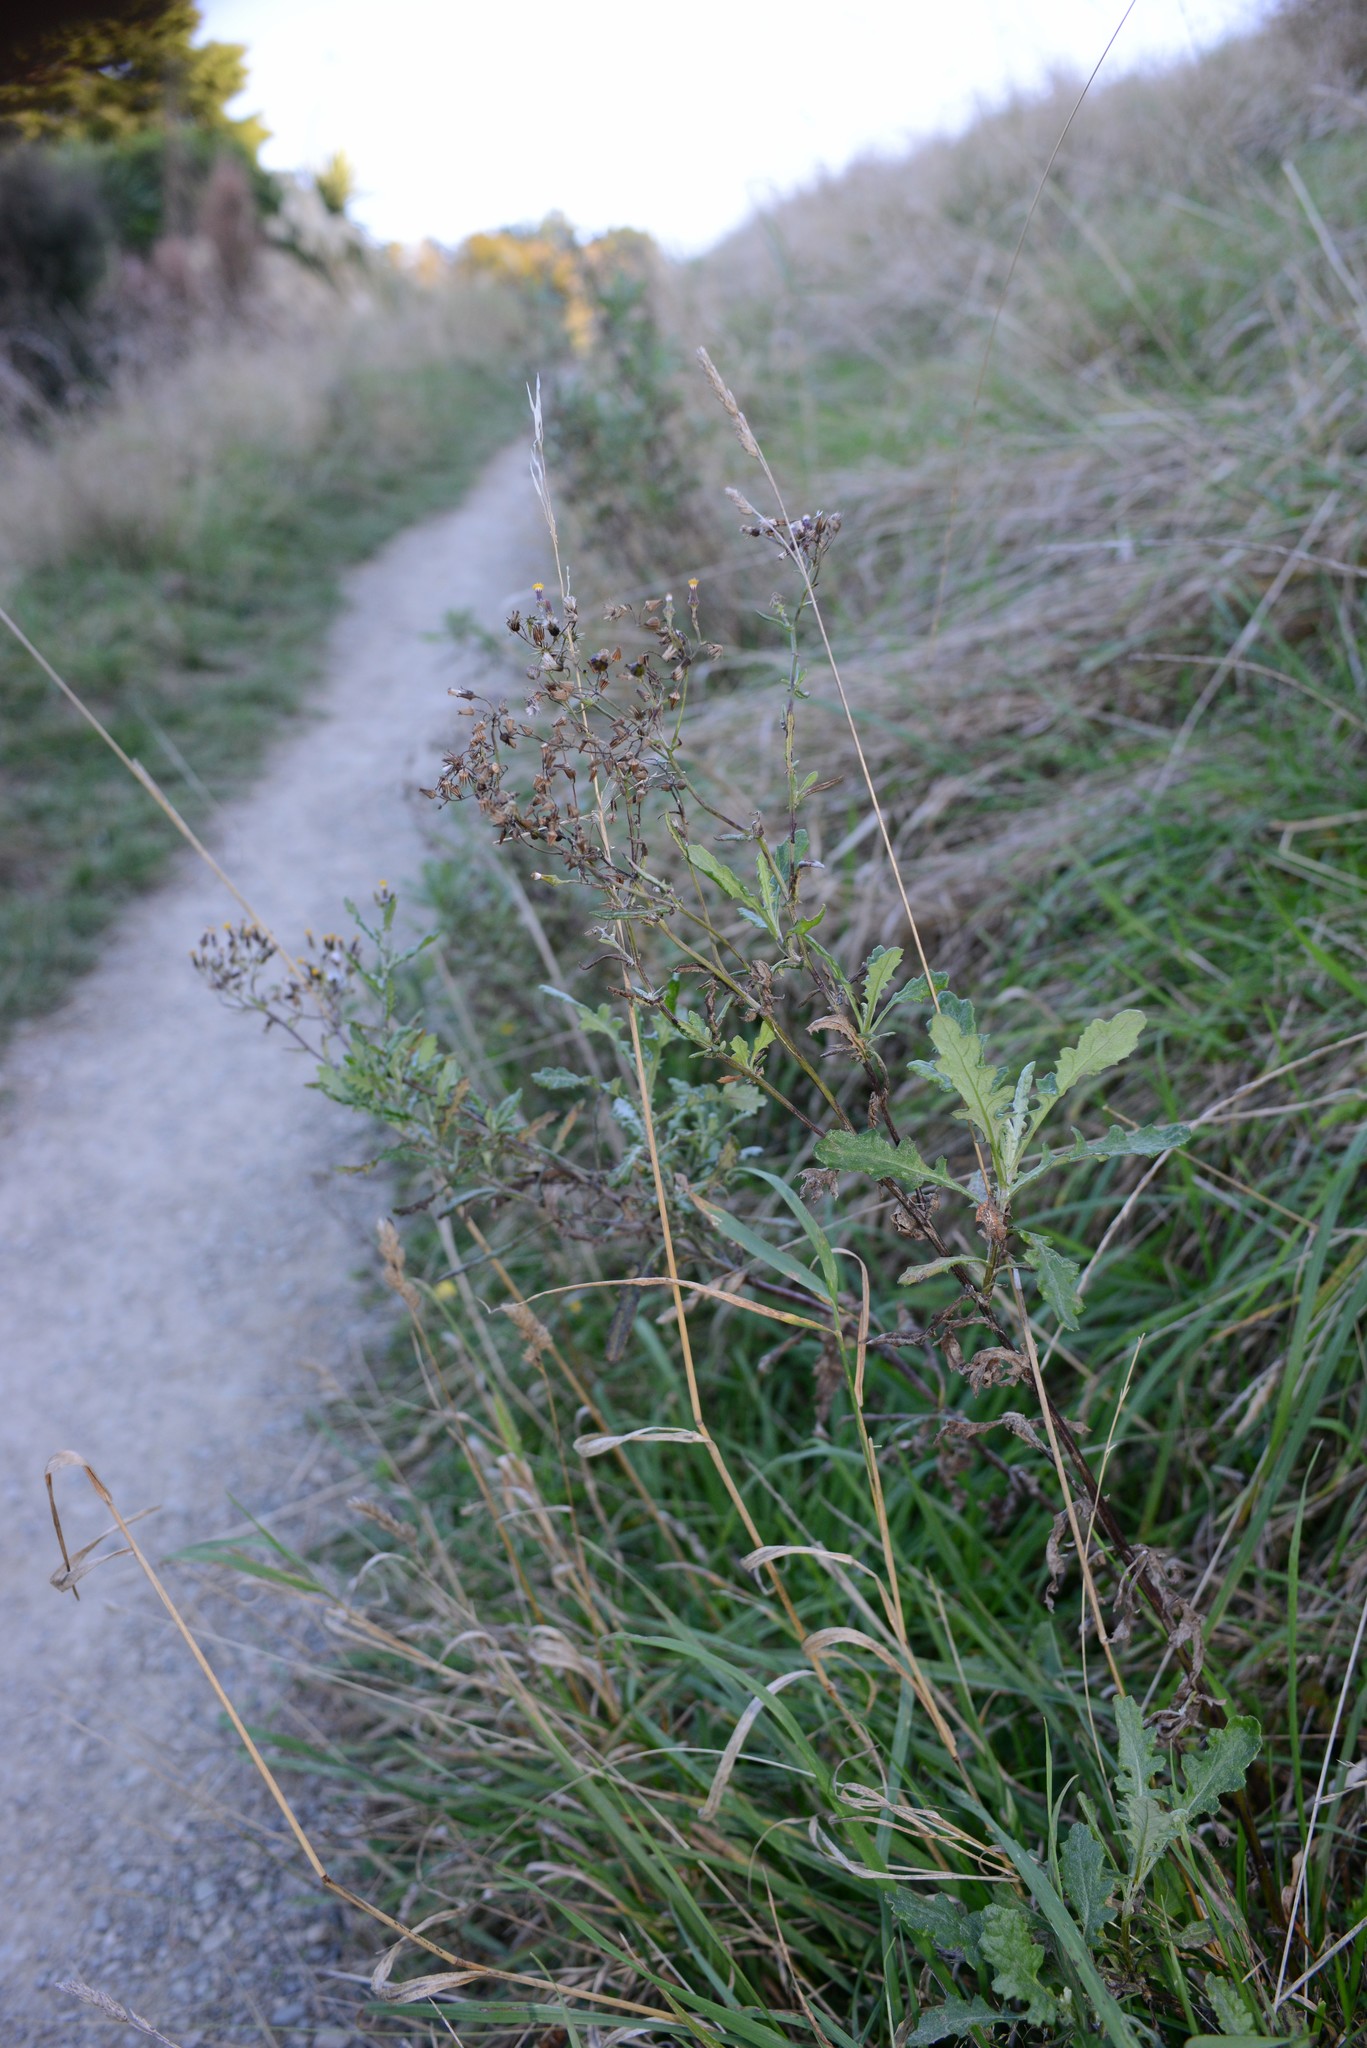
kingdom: Plantae
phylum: Tracheophyta
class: Magnoliopsida
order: Asterales
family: Asteraceae
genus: Senecio
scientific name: Senecio glomeratus
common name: Cutleaf burnweed
